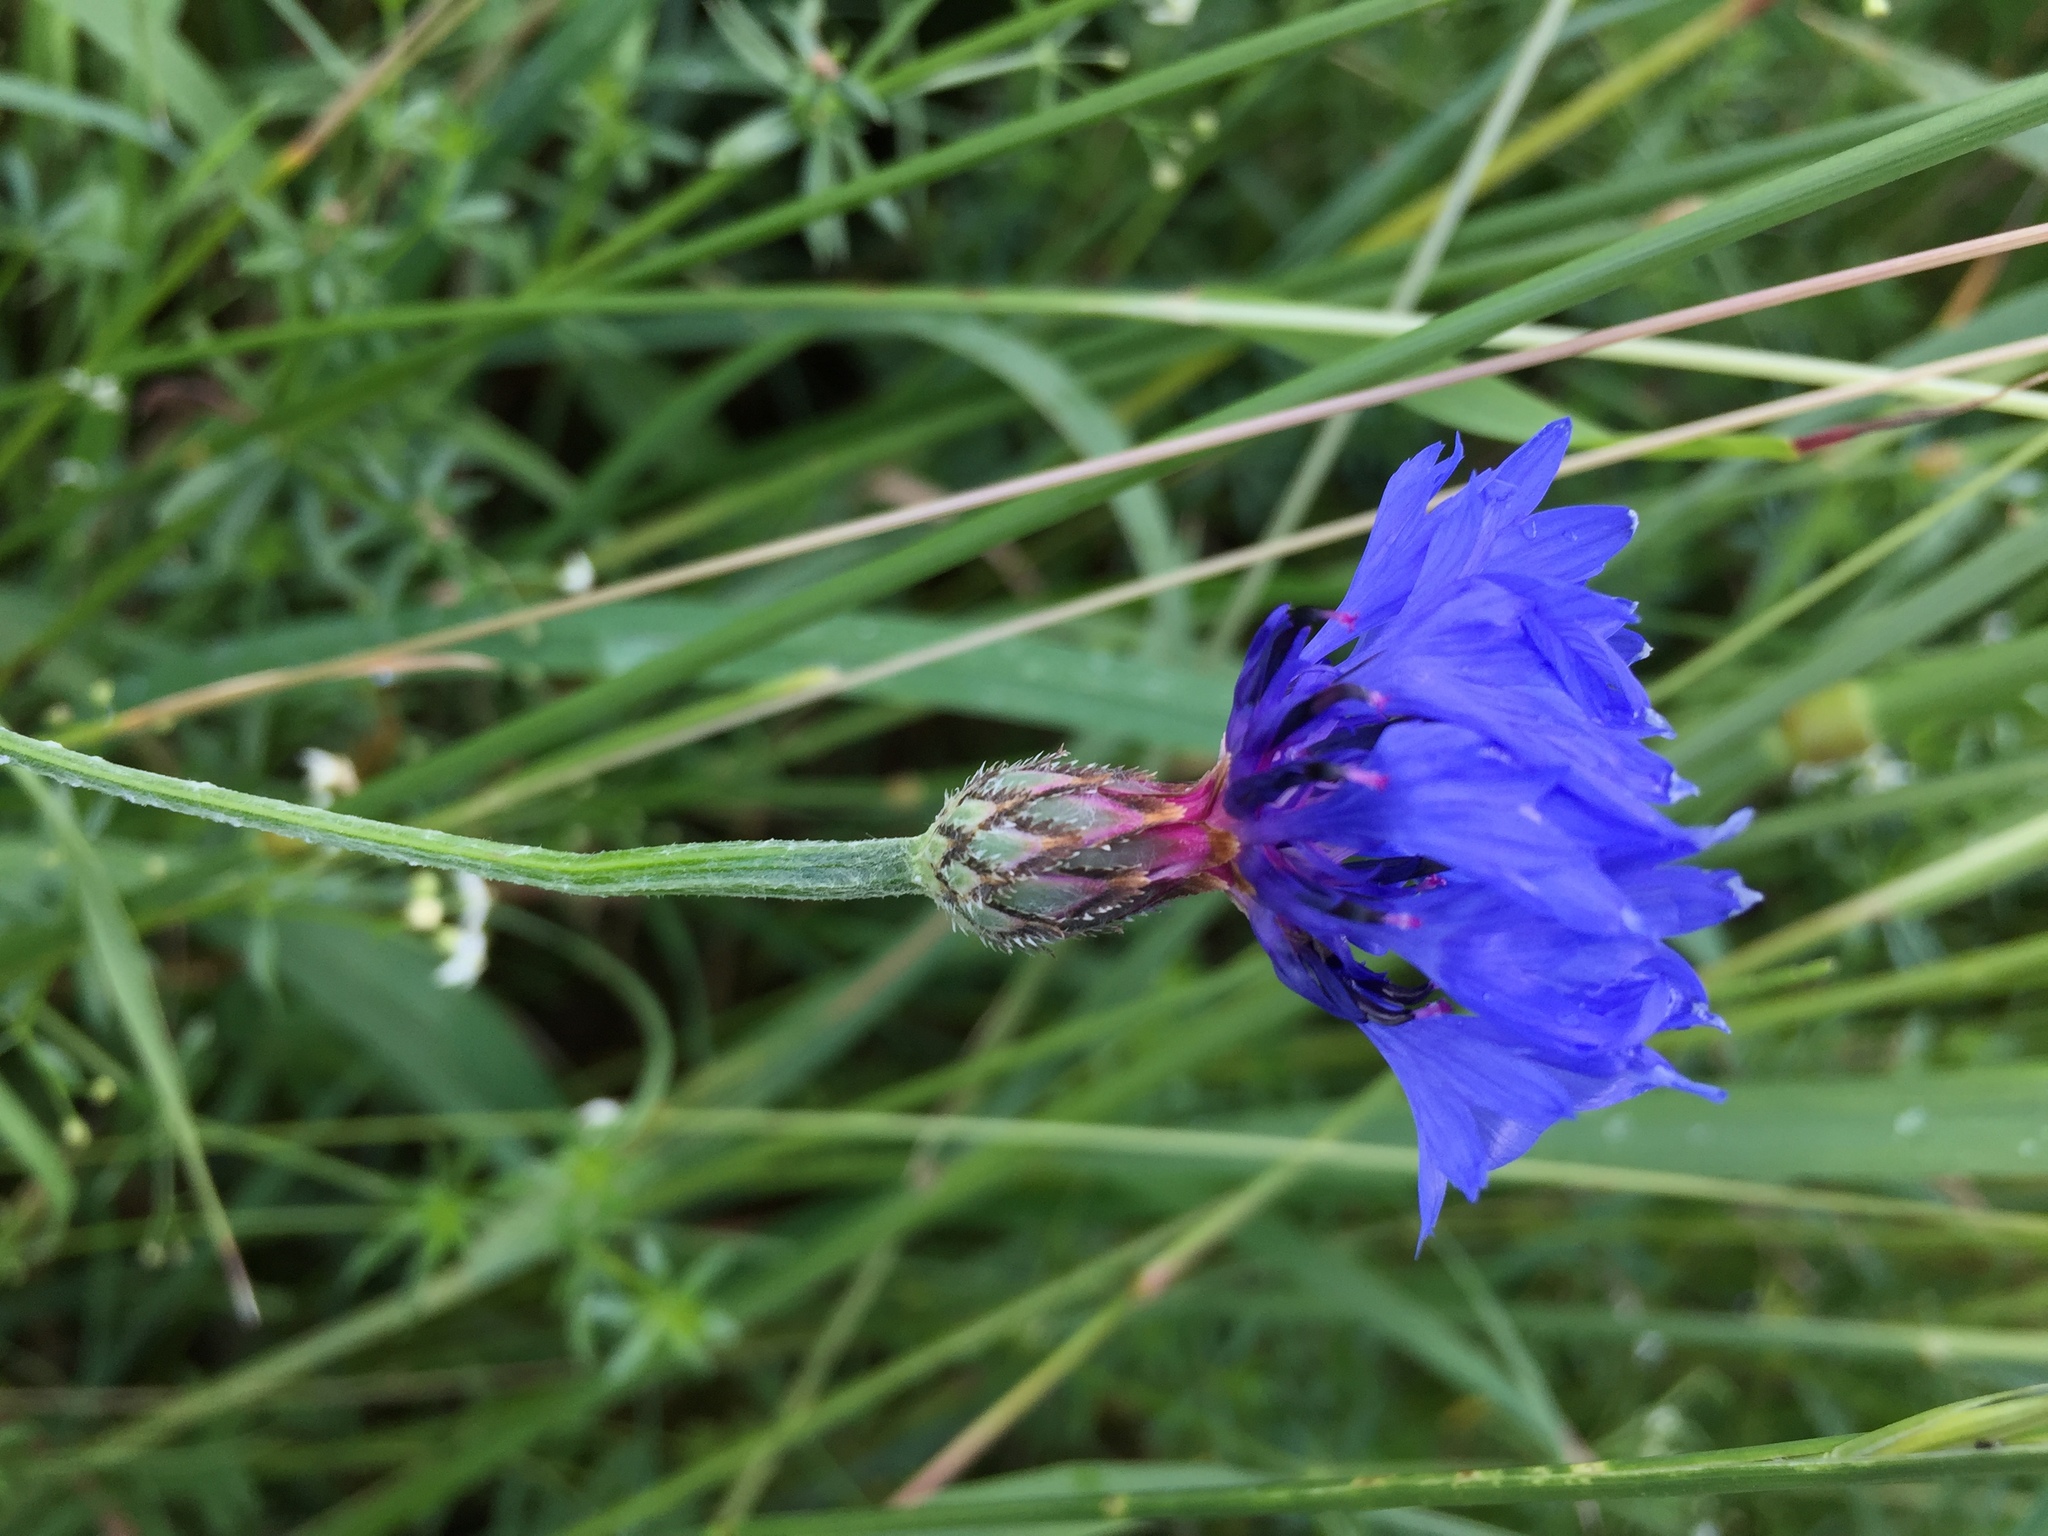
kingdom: Plantae
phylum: Tracheophyta
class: Magnoliopsida
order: Asterales
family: Asteraceae
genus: Centaurea
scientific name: Centaurea cyanus
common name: Cornflower
